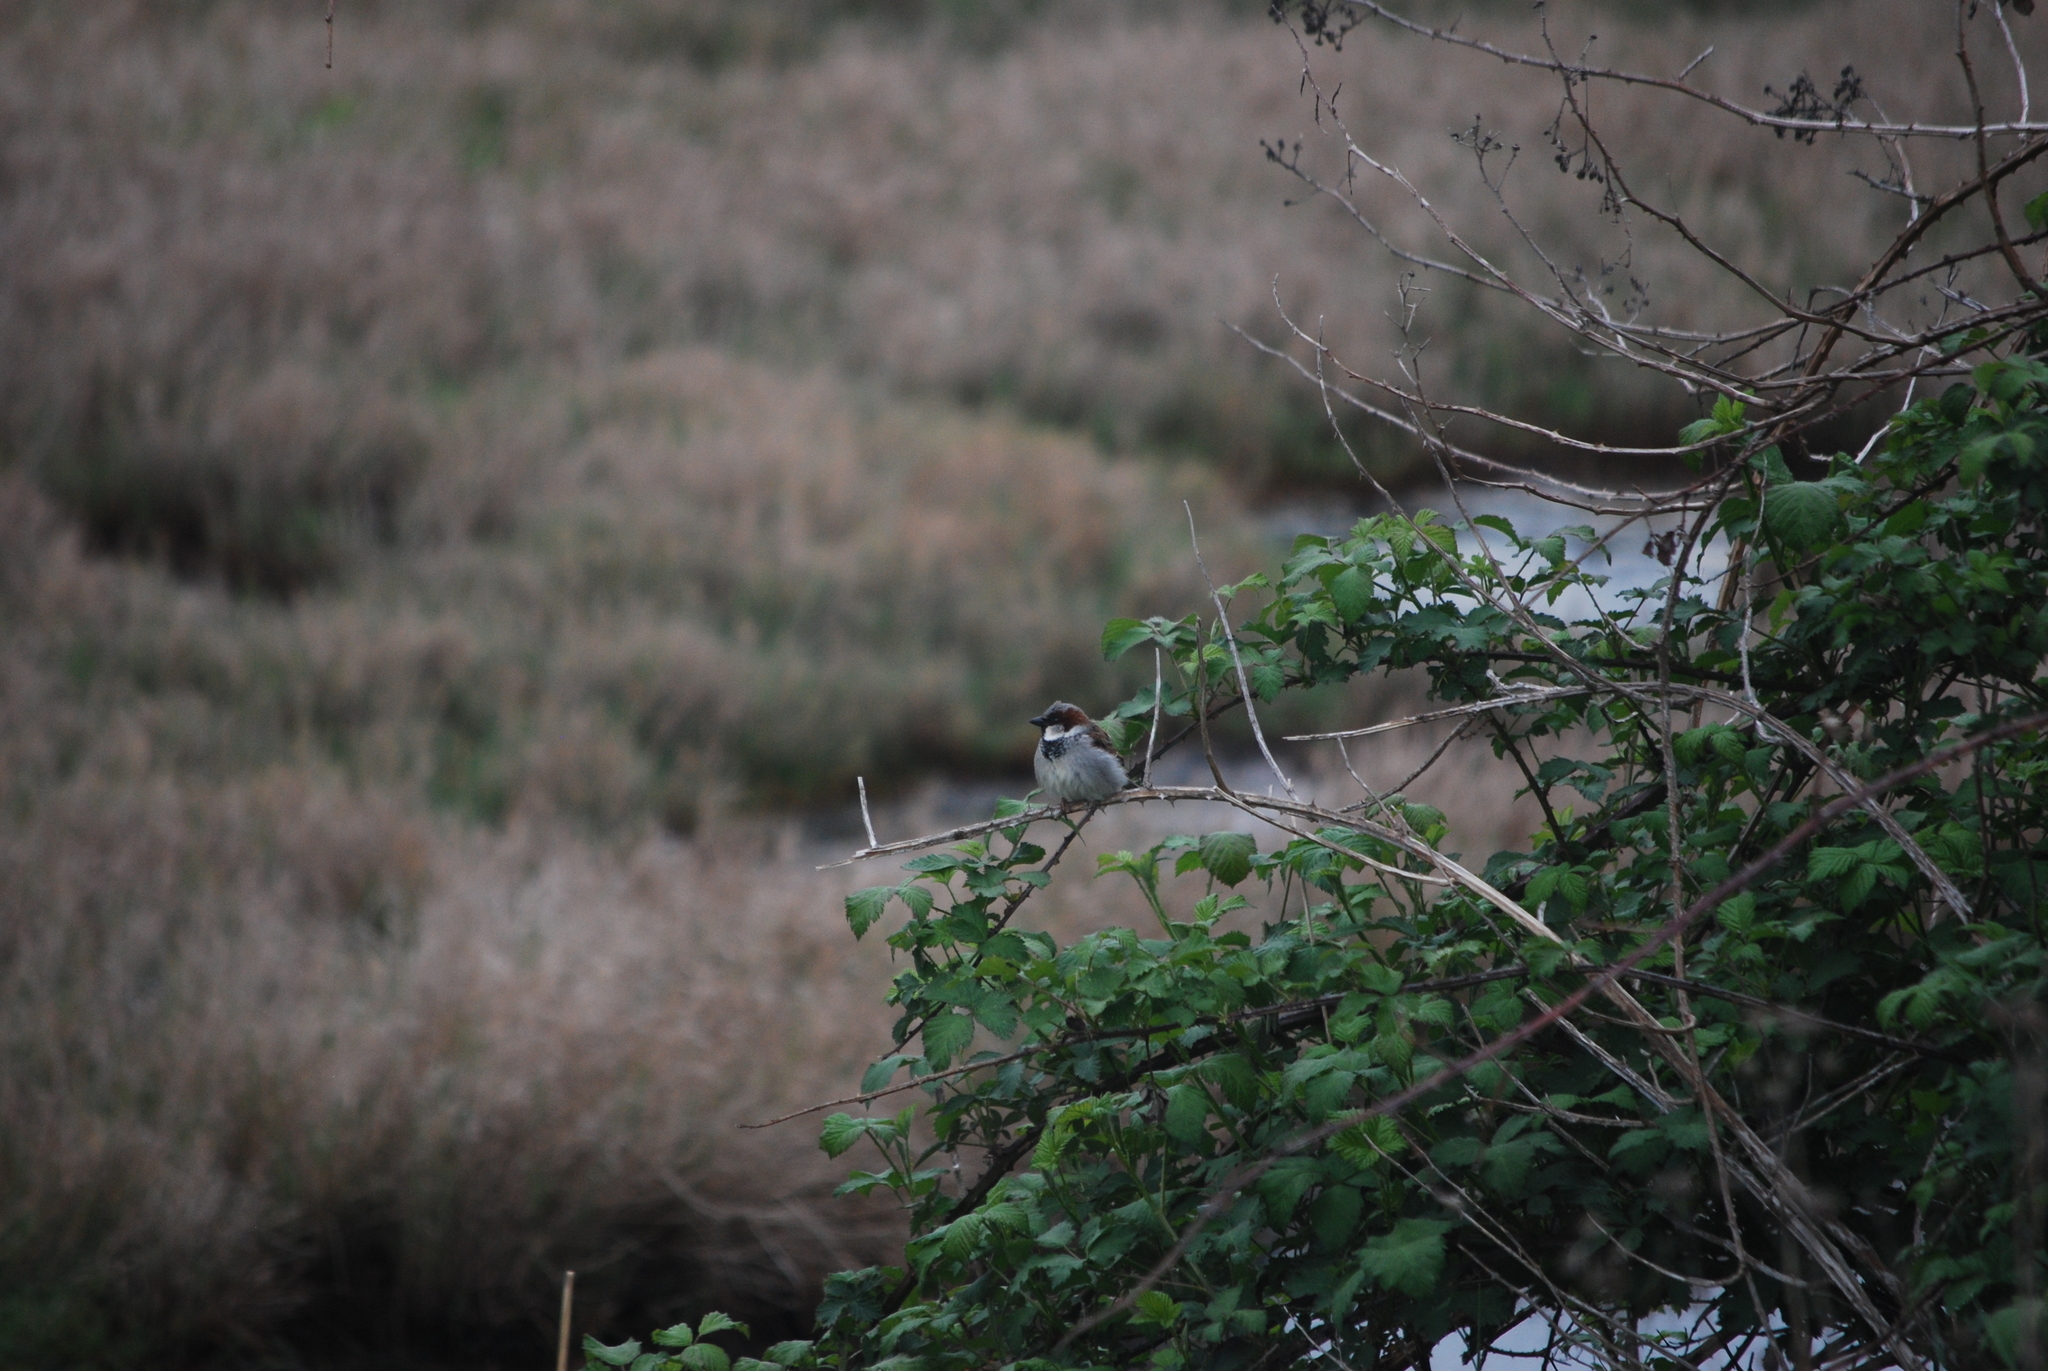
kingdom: Animalia
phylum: Chordata
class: Aves
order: Passeriformes
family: Passeridae
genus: Passer
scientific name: Passer domesticus
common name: House sparrow
